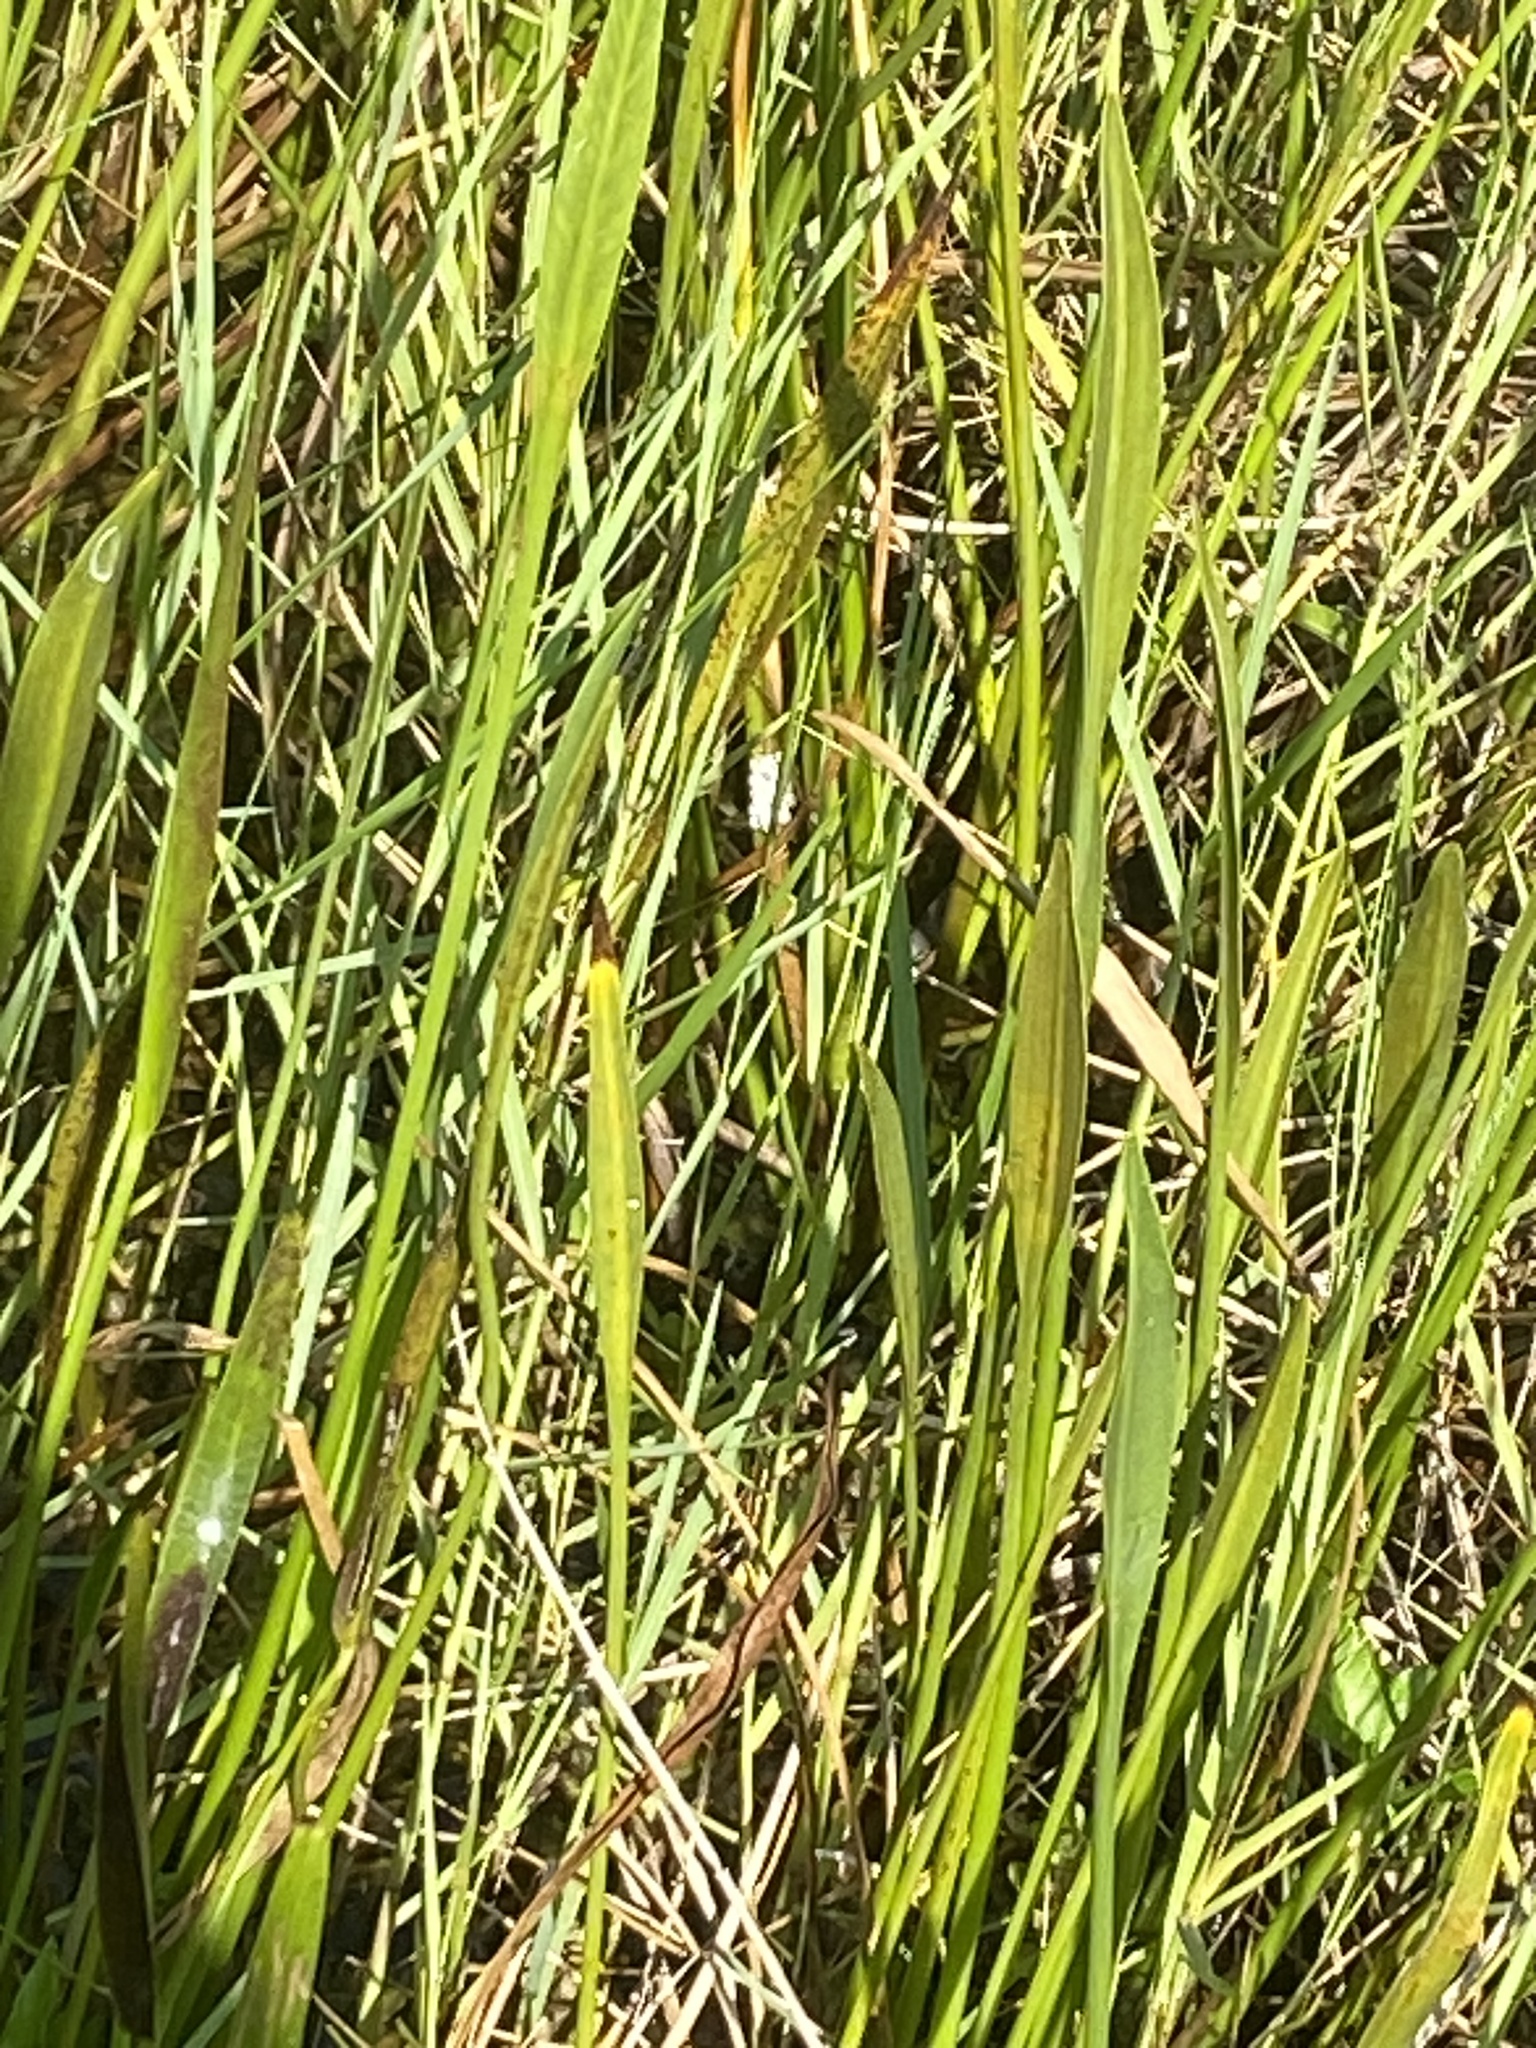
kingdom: Animalia
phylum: Mollusca
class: Gastropoda
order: Architaenioglossa
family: Ampullariidae
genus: Pomacea
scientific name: Pomacea paludosa
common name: Florida applesnail
